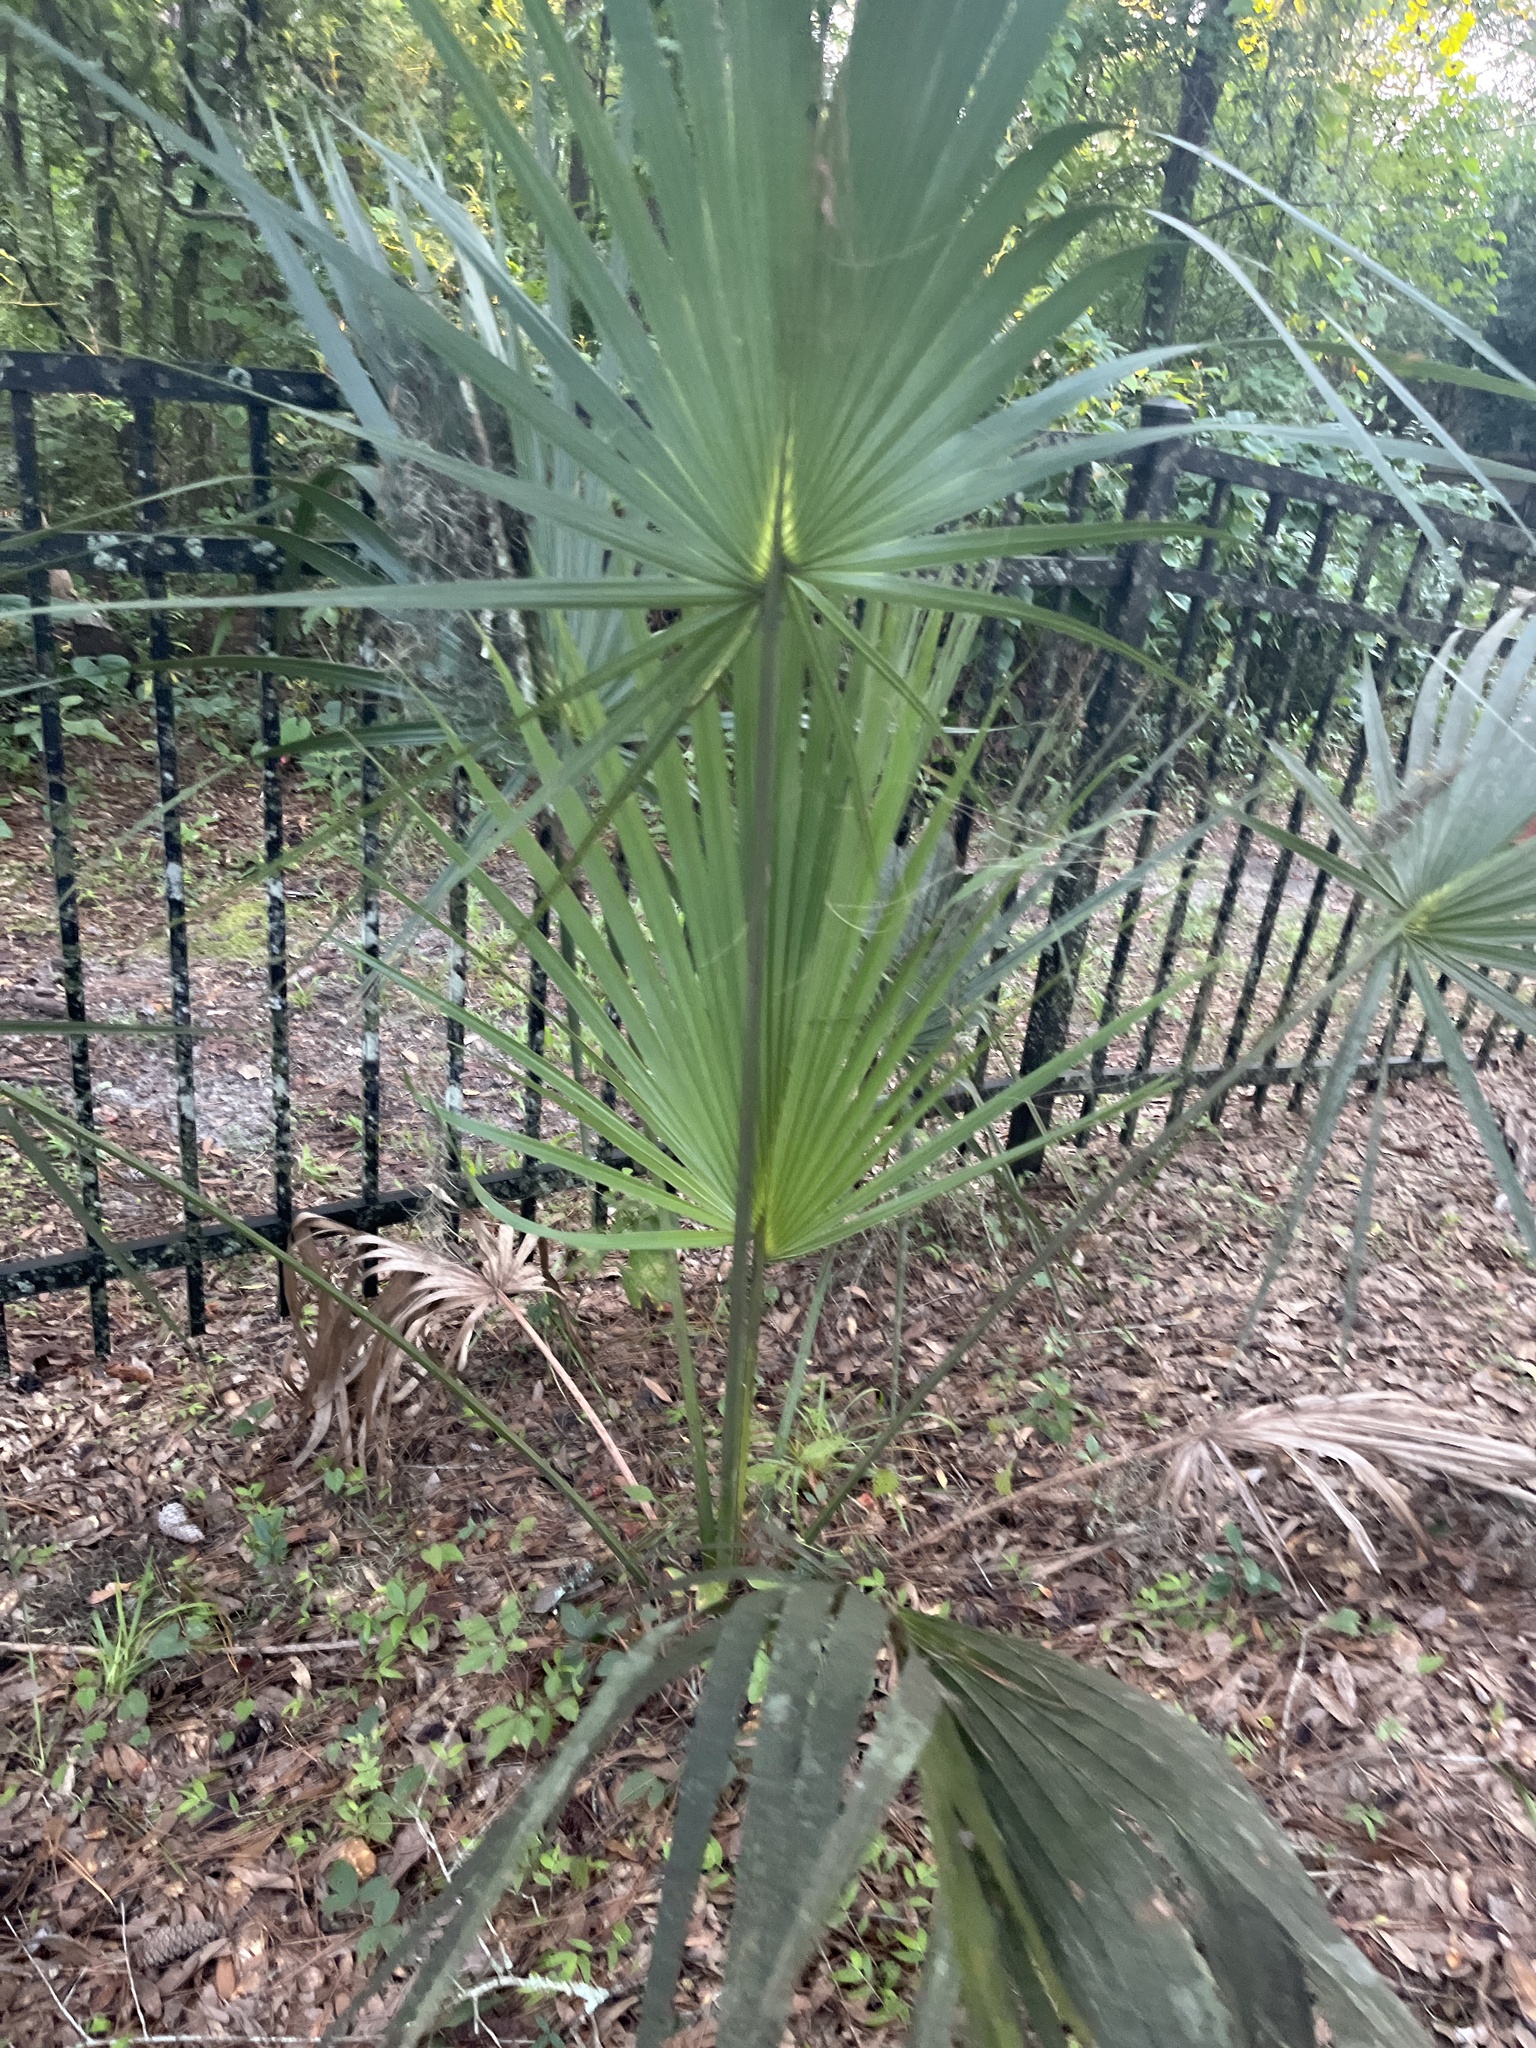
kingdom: Plantae
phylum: Tracheophyta
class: Liliopsida
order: Arecales
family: Arecaceae
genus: Sabal
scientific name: Sabal palmetto
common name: Blue palmetto
